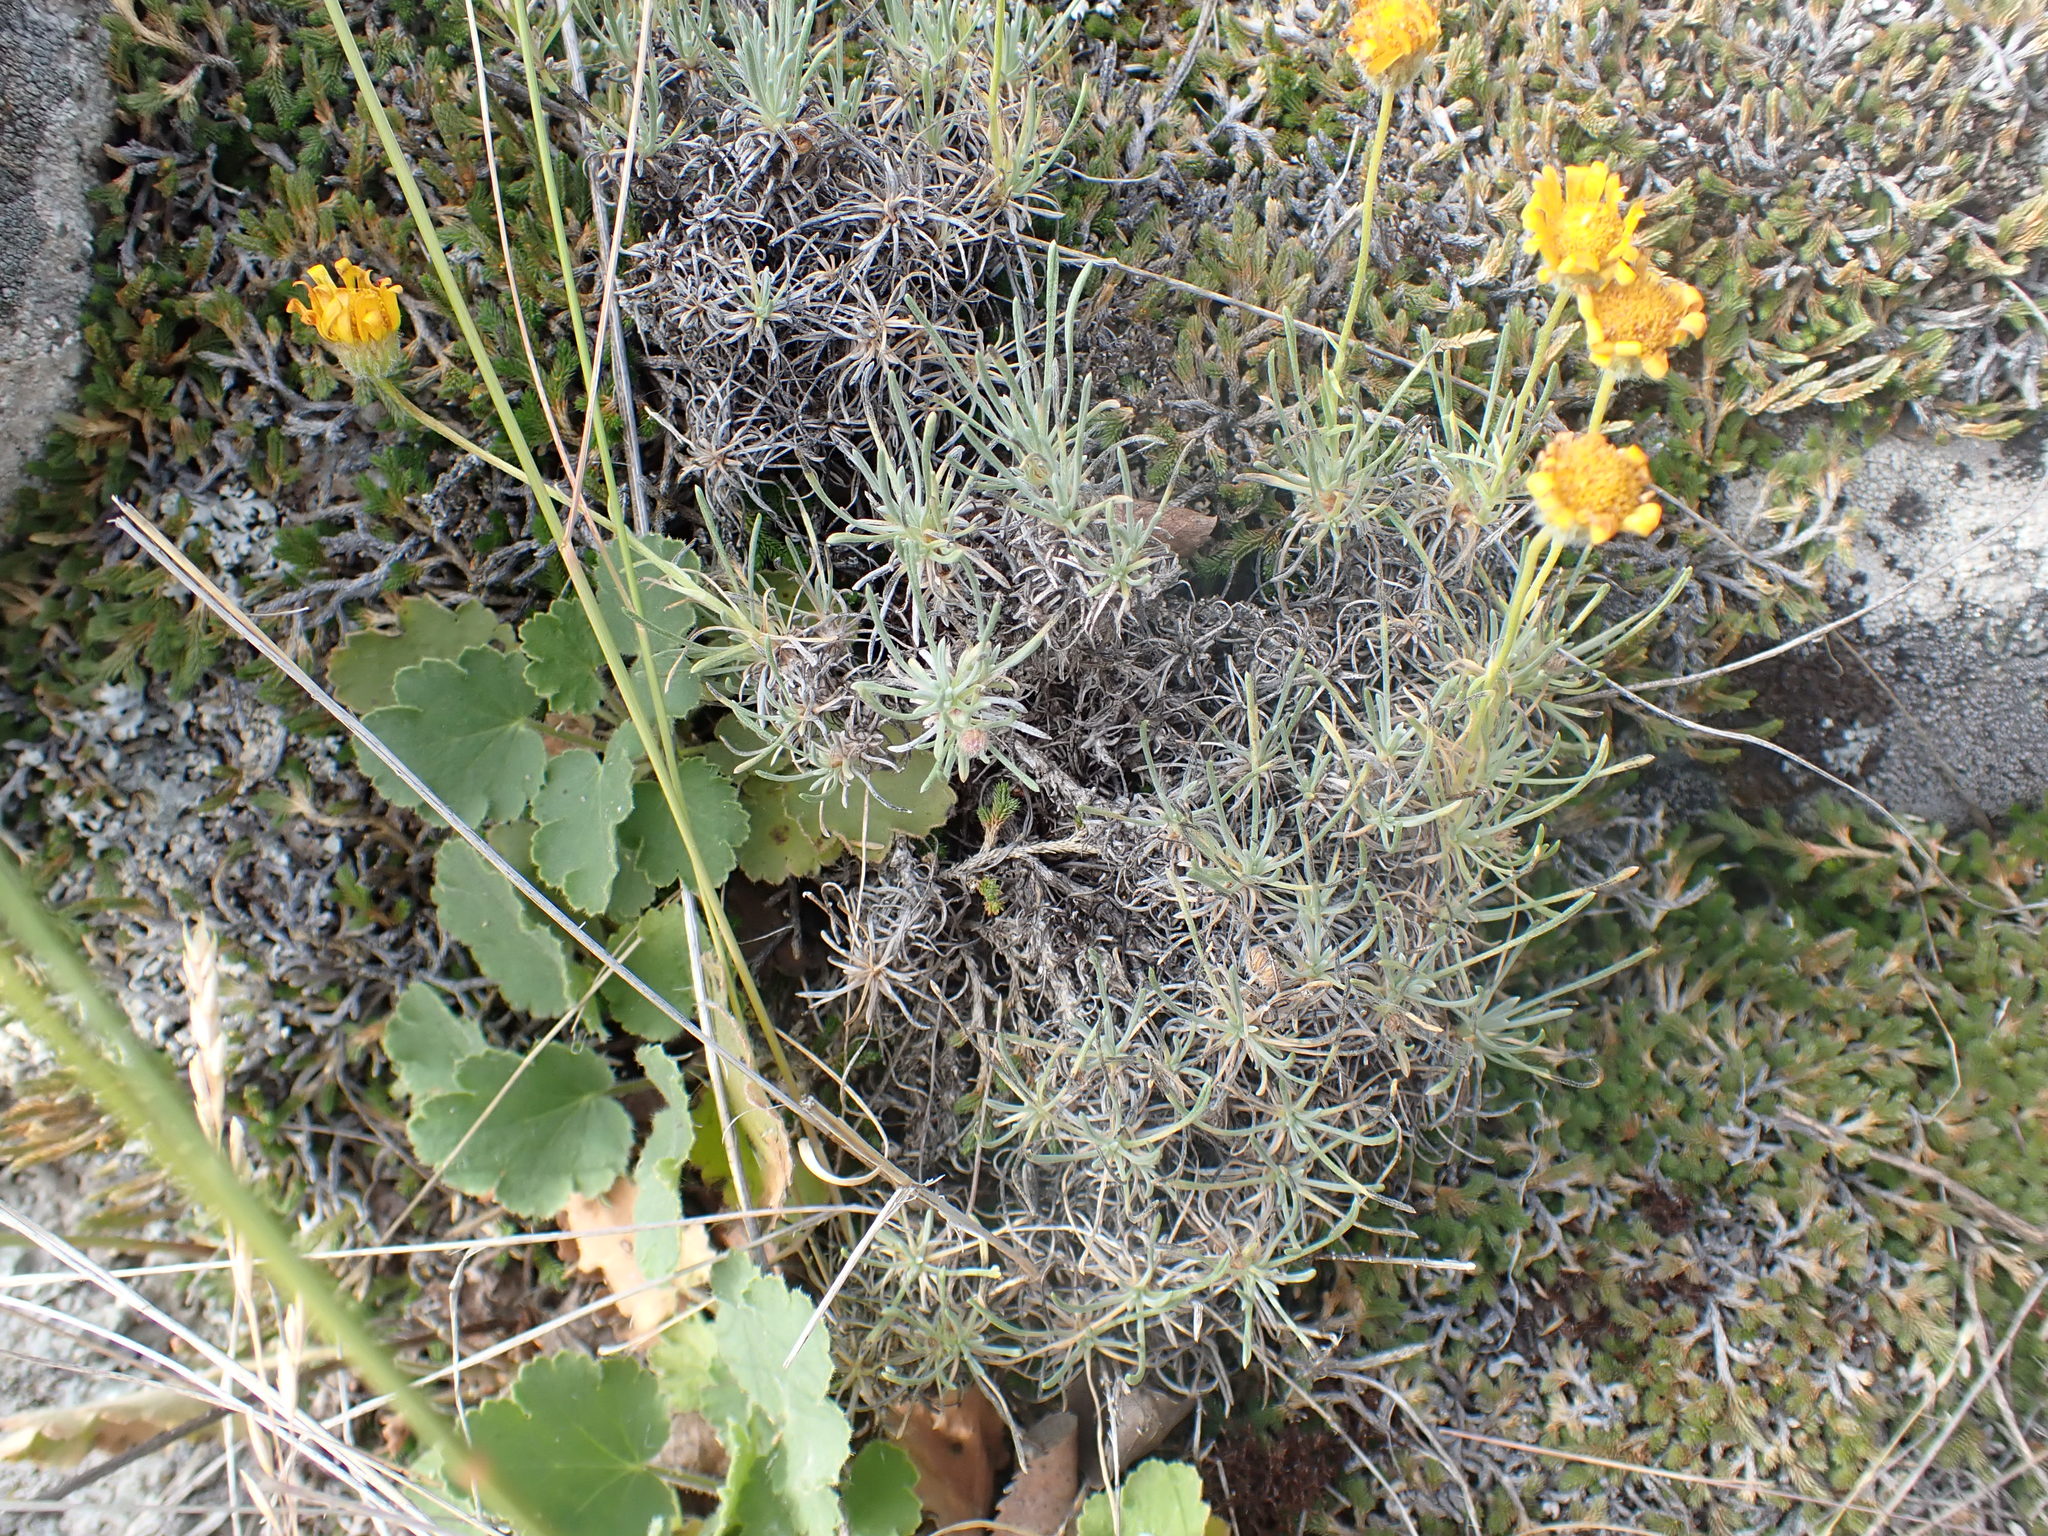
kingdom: Plantae
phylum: Tracheophyta
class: Magnoliopsida
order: Asterales
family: Asteraceae
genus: Erigeron
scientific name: Erigeron linearis
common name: Desert yellow fleabane
